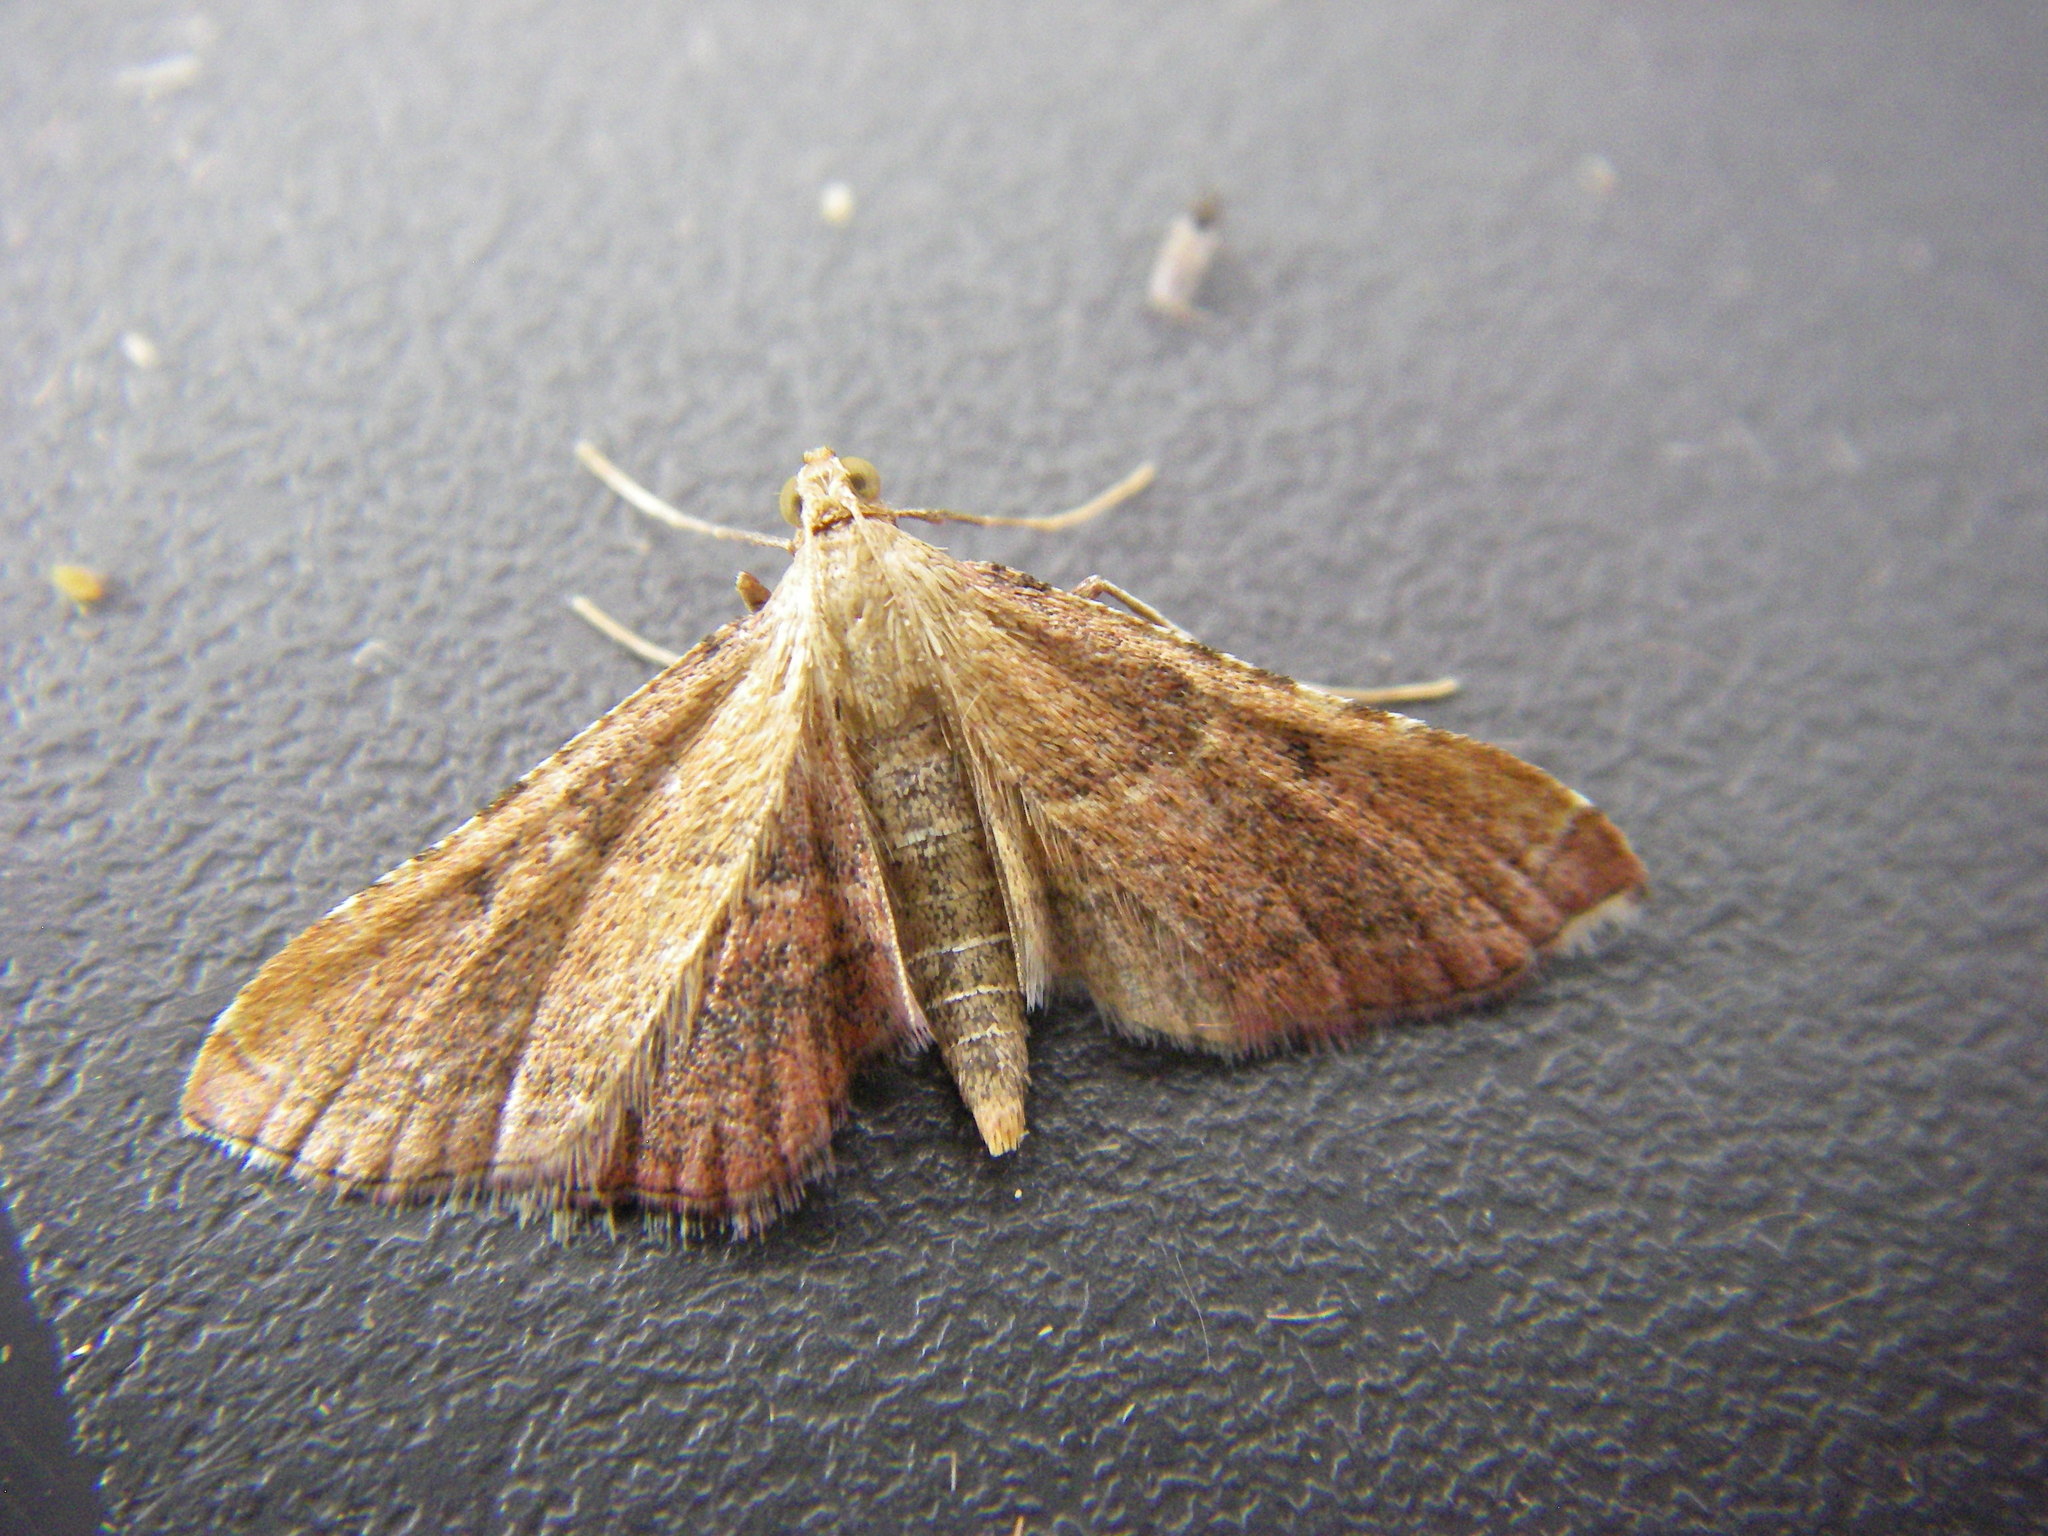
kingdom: Animalia
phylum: Arthropoda
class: Insecta
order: Lepidoptera
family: Pyralidae
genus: Endotricha
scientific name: Endotricha flammealis
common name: Rosy tabby
